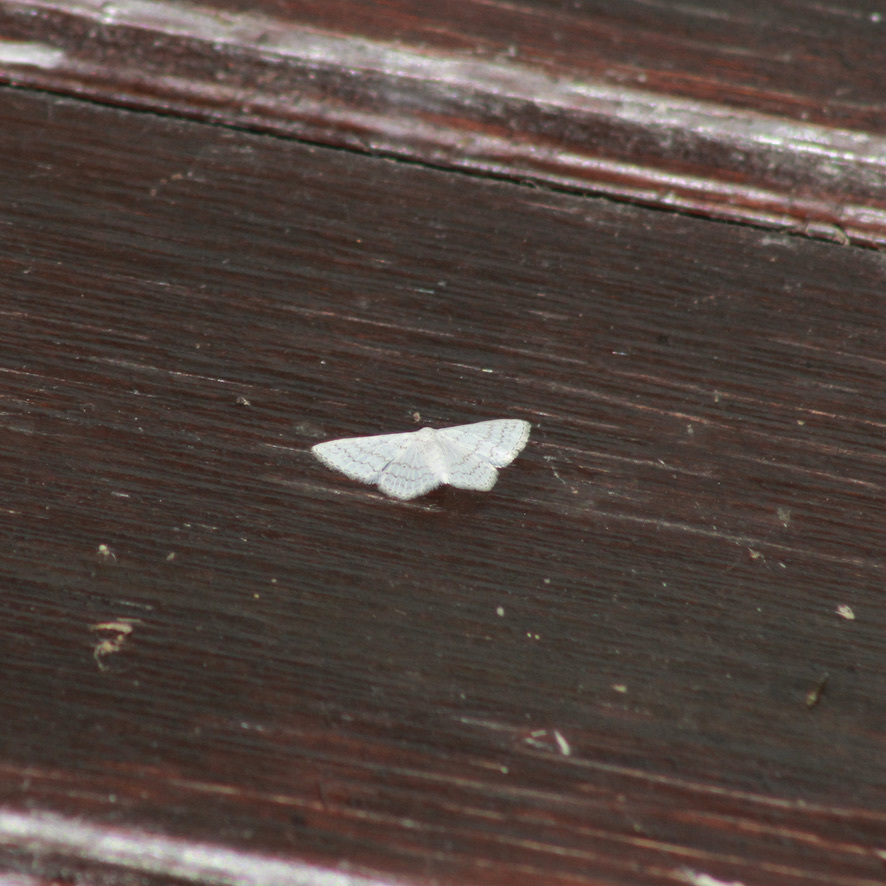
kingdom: Animalia
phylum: Arthropoda
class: Insecta
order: Lepidoptera
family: Geometridae
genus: Idaea
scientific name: Idaea tacturata
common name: Dot-lined wave
